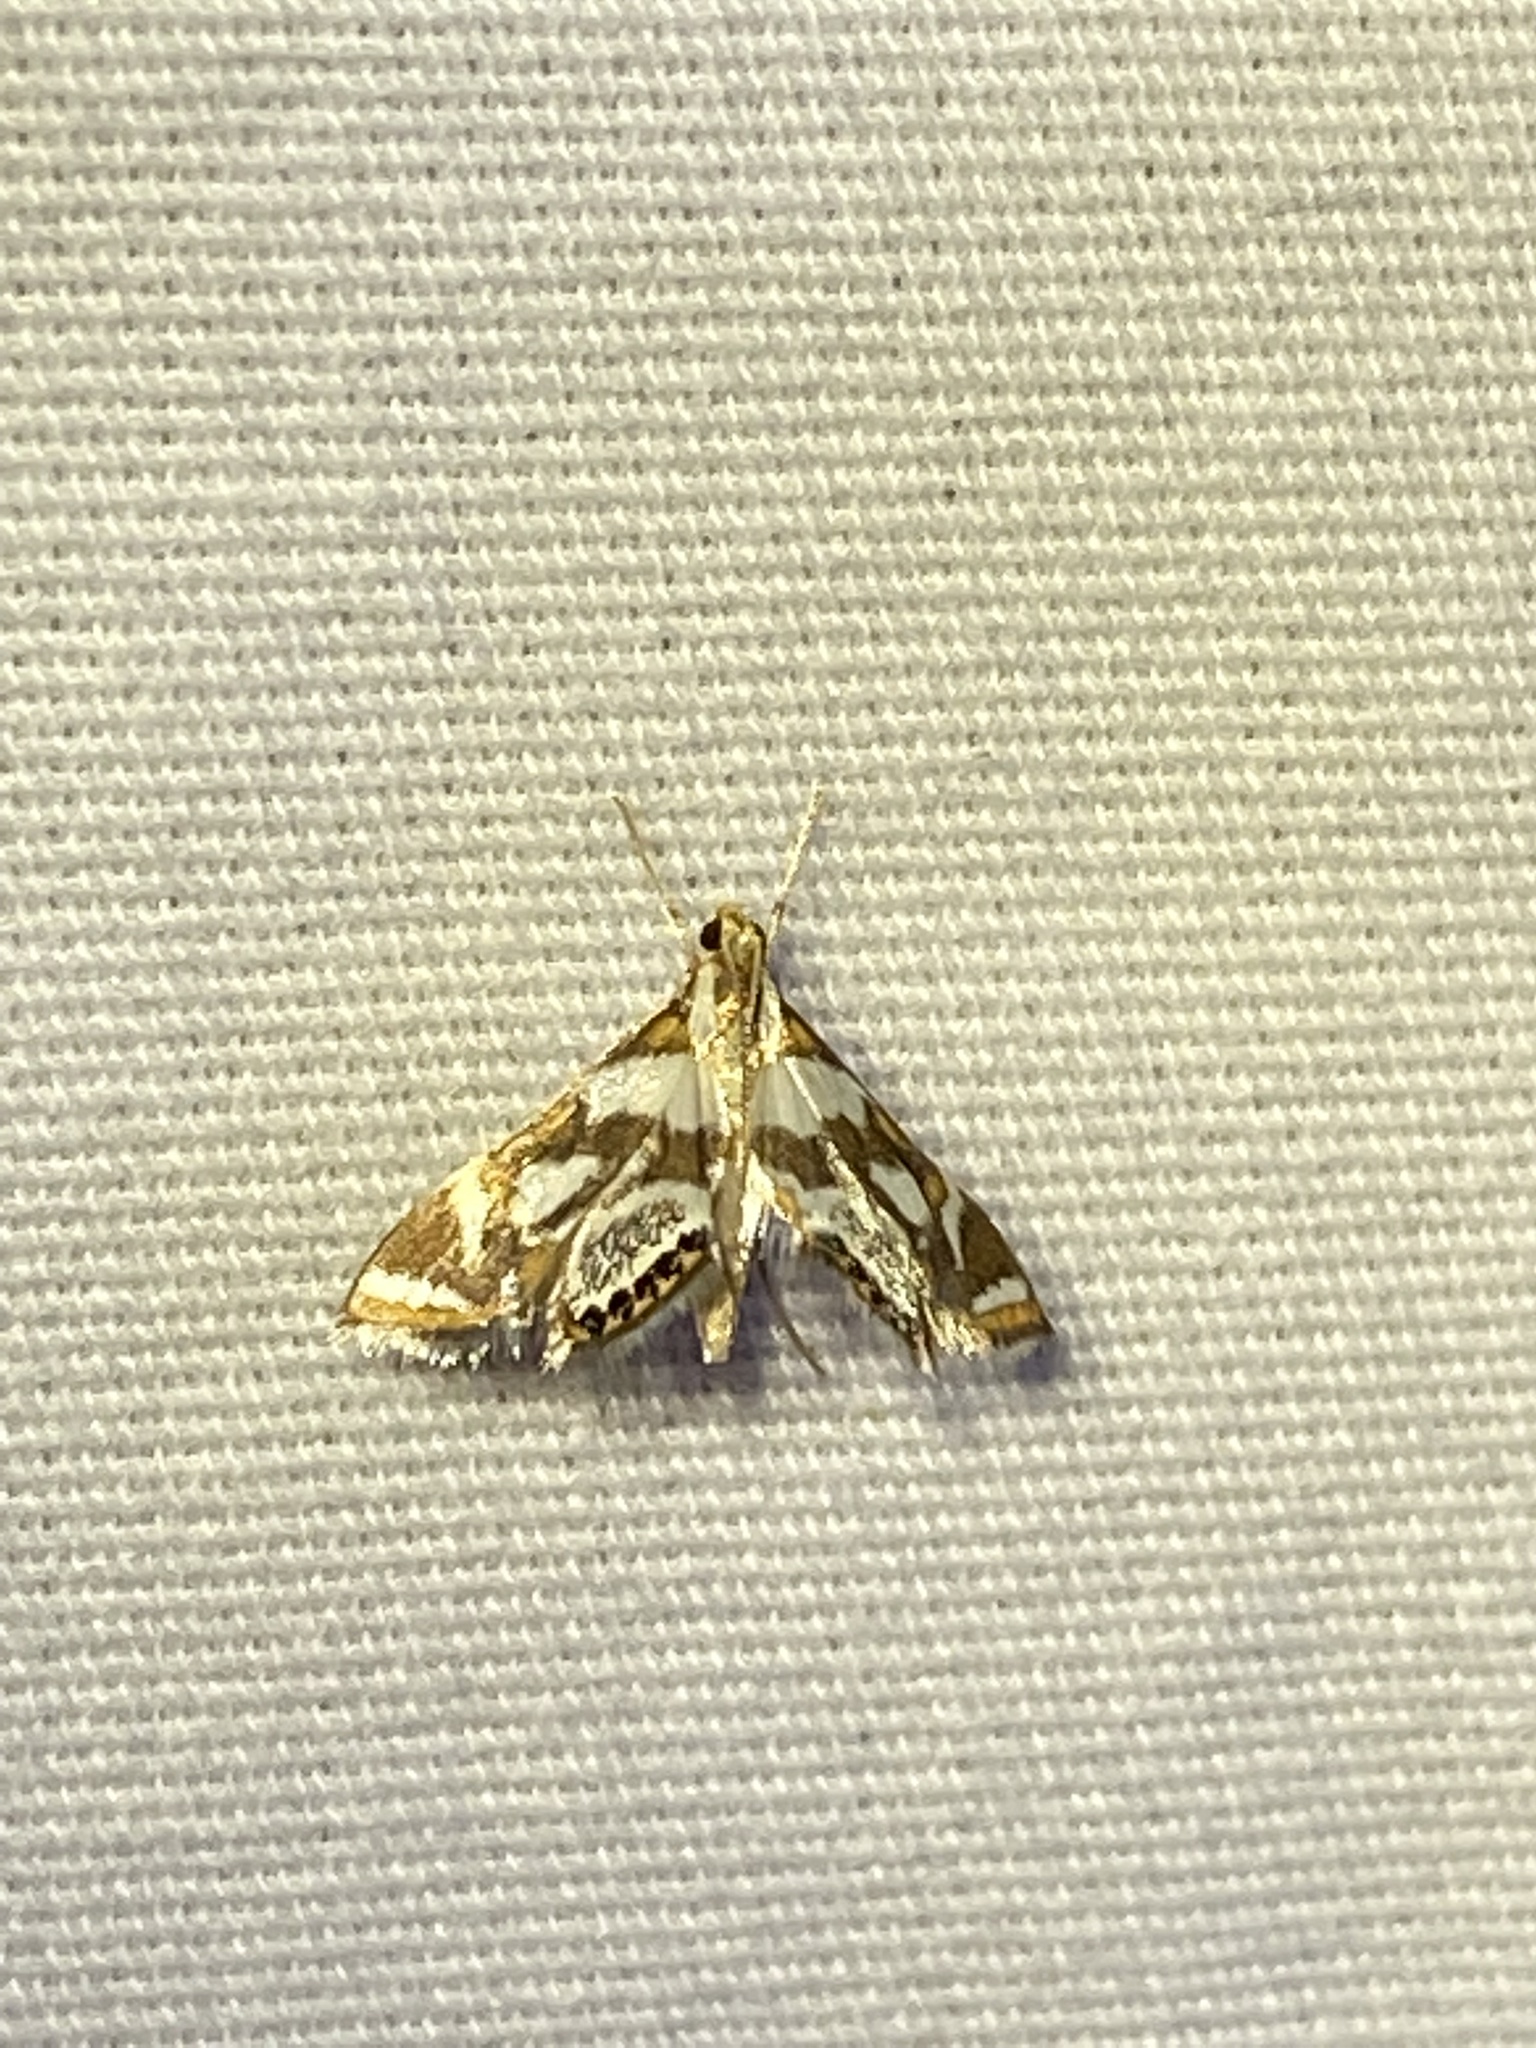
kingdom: Animalia
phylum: Arthropoda
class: Insecta
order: Lepidoptera
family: Crambidae
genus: Chrysendeton
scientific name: Chrysendeton medicinalis
